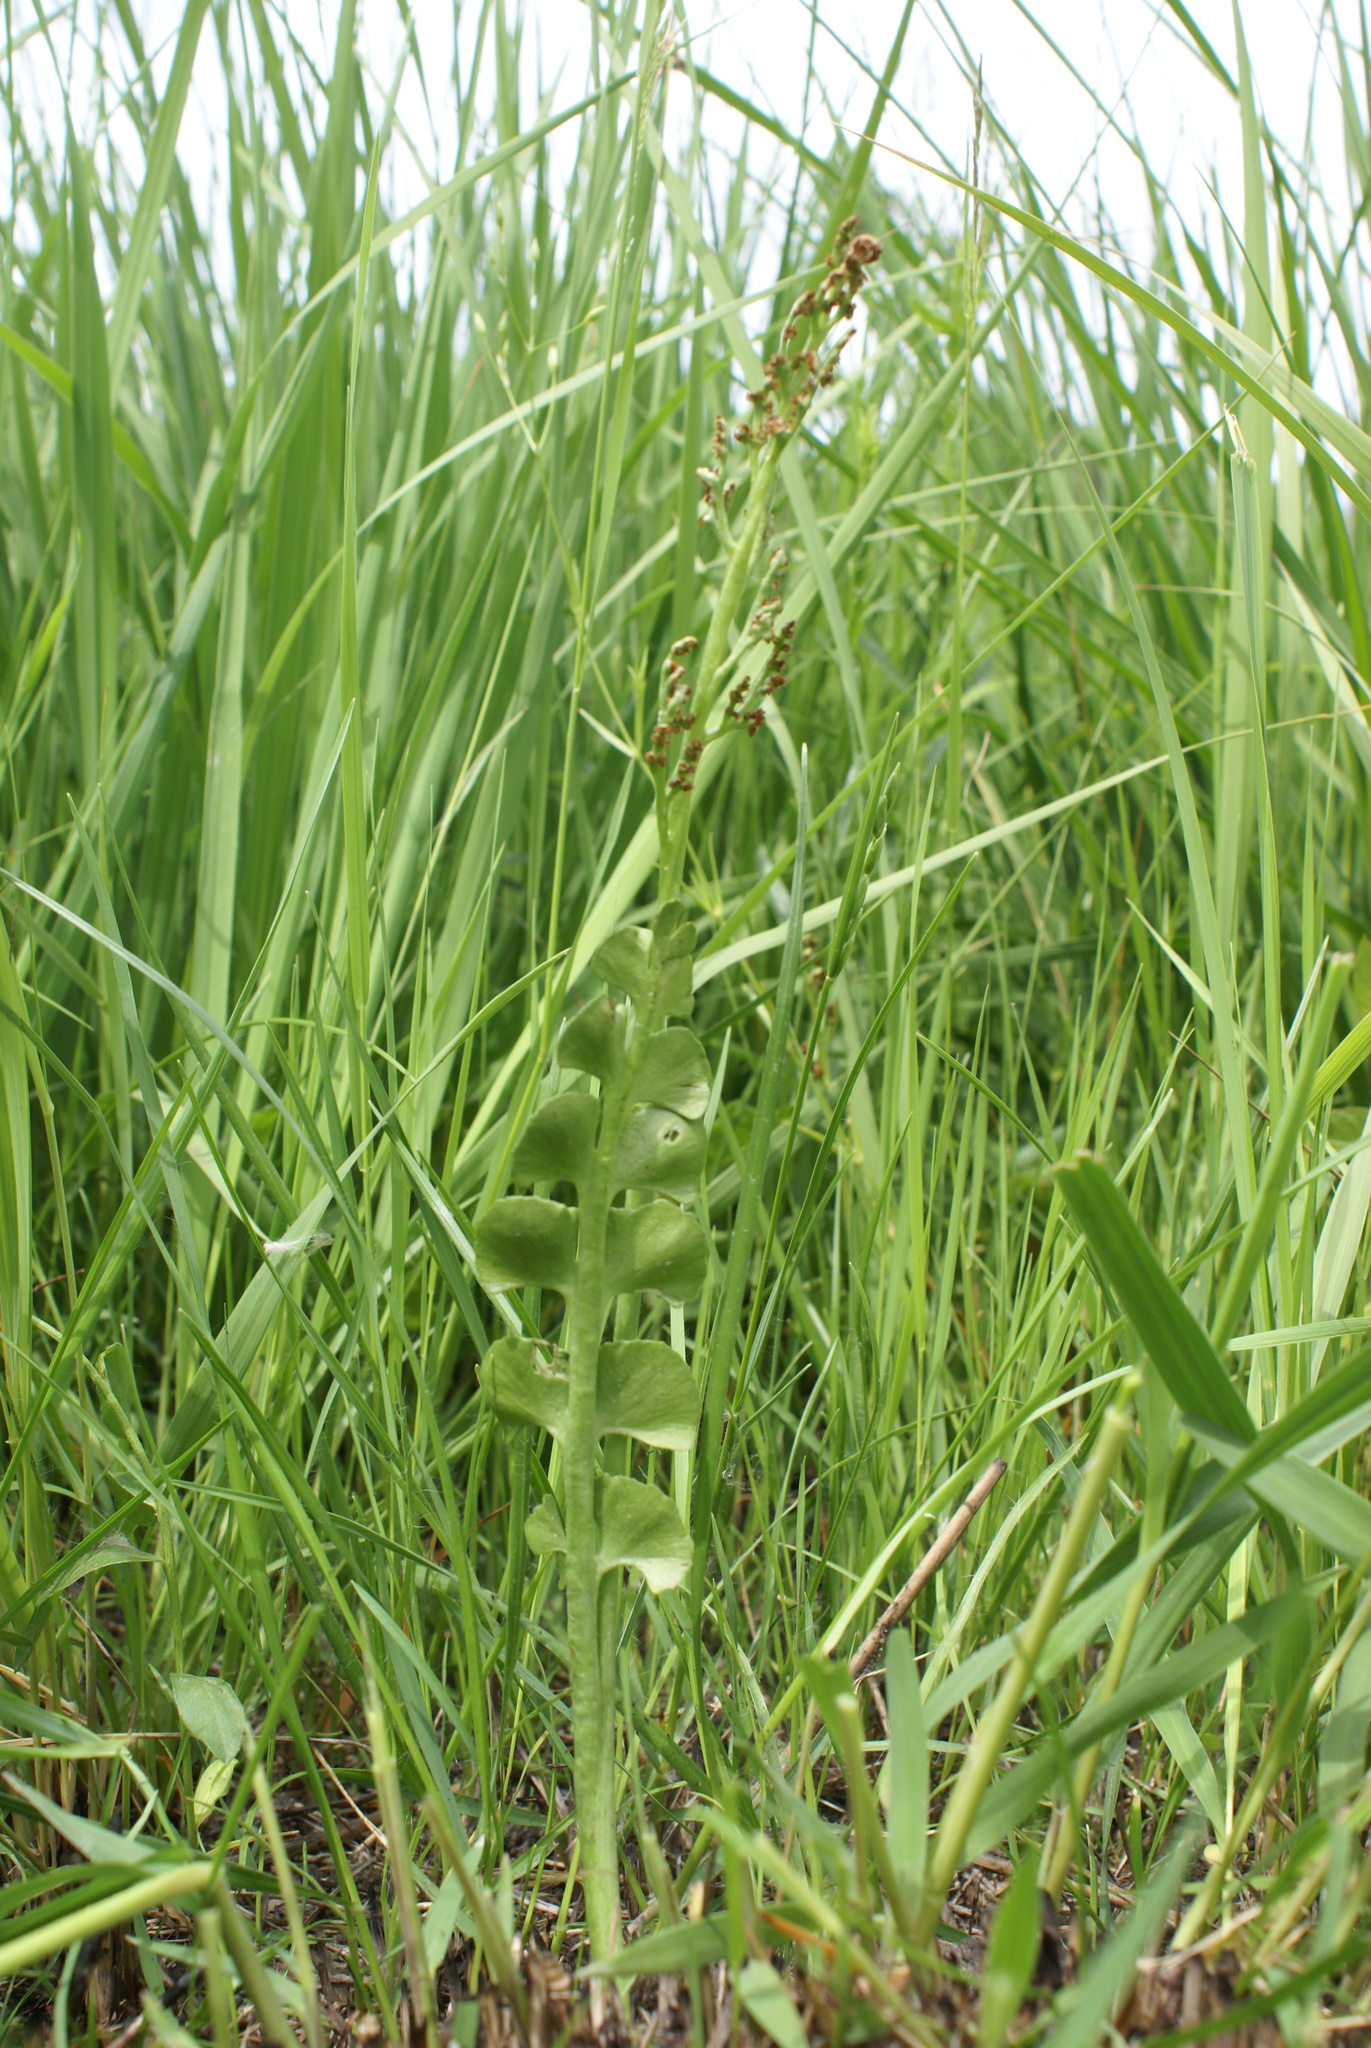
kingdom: Plantae
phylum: Tracheophyta
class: Polypodiopsida
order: Ophioglossales
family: Ophioglossaceae
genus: Botrychium
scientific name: Botrychium lunaria
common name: Moonwort
